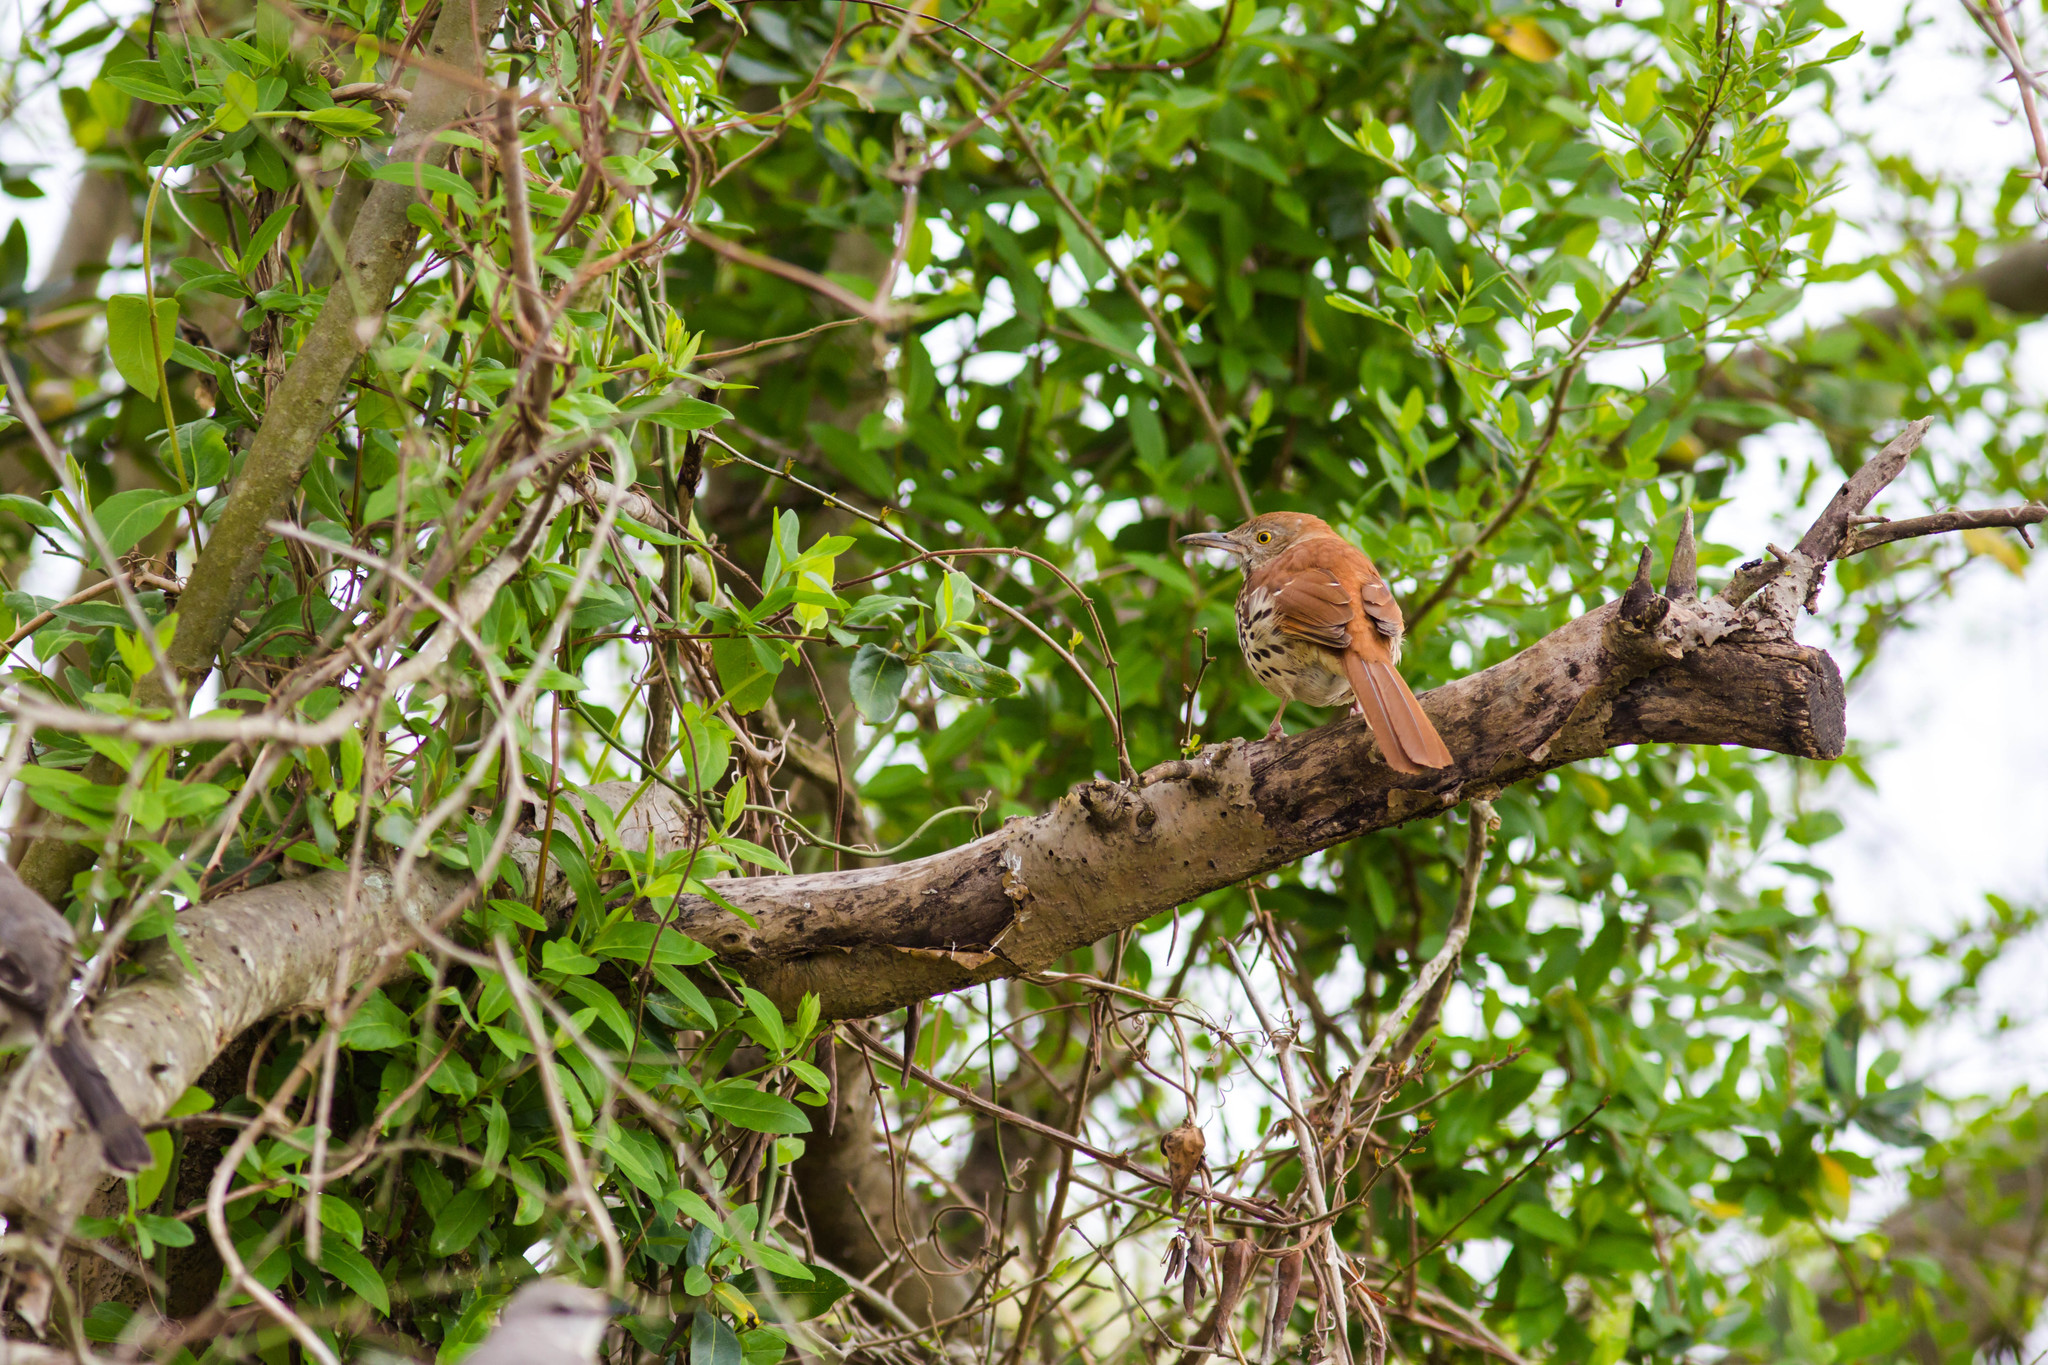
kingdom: Animalia
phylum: Chordata
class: Aves
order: Passeriformes
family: Mimidae
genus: Toxostoma
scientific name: Toxostoma rufum
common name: Brown thrasher
